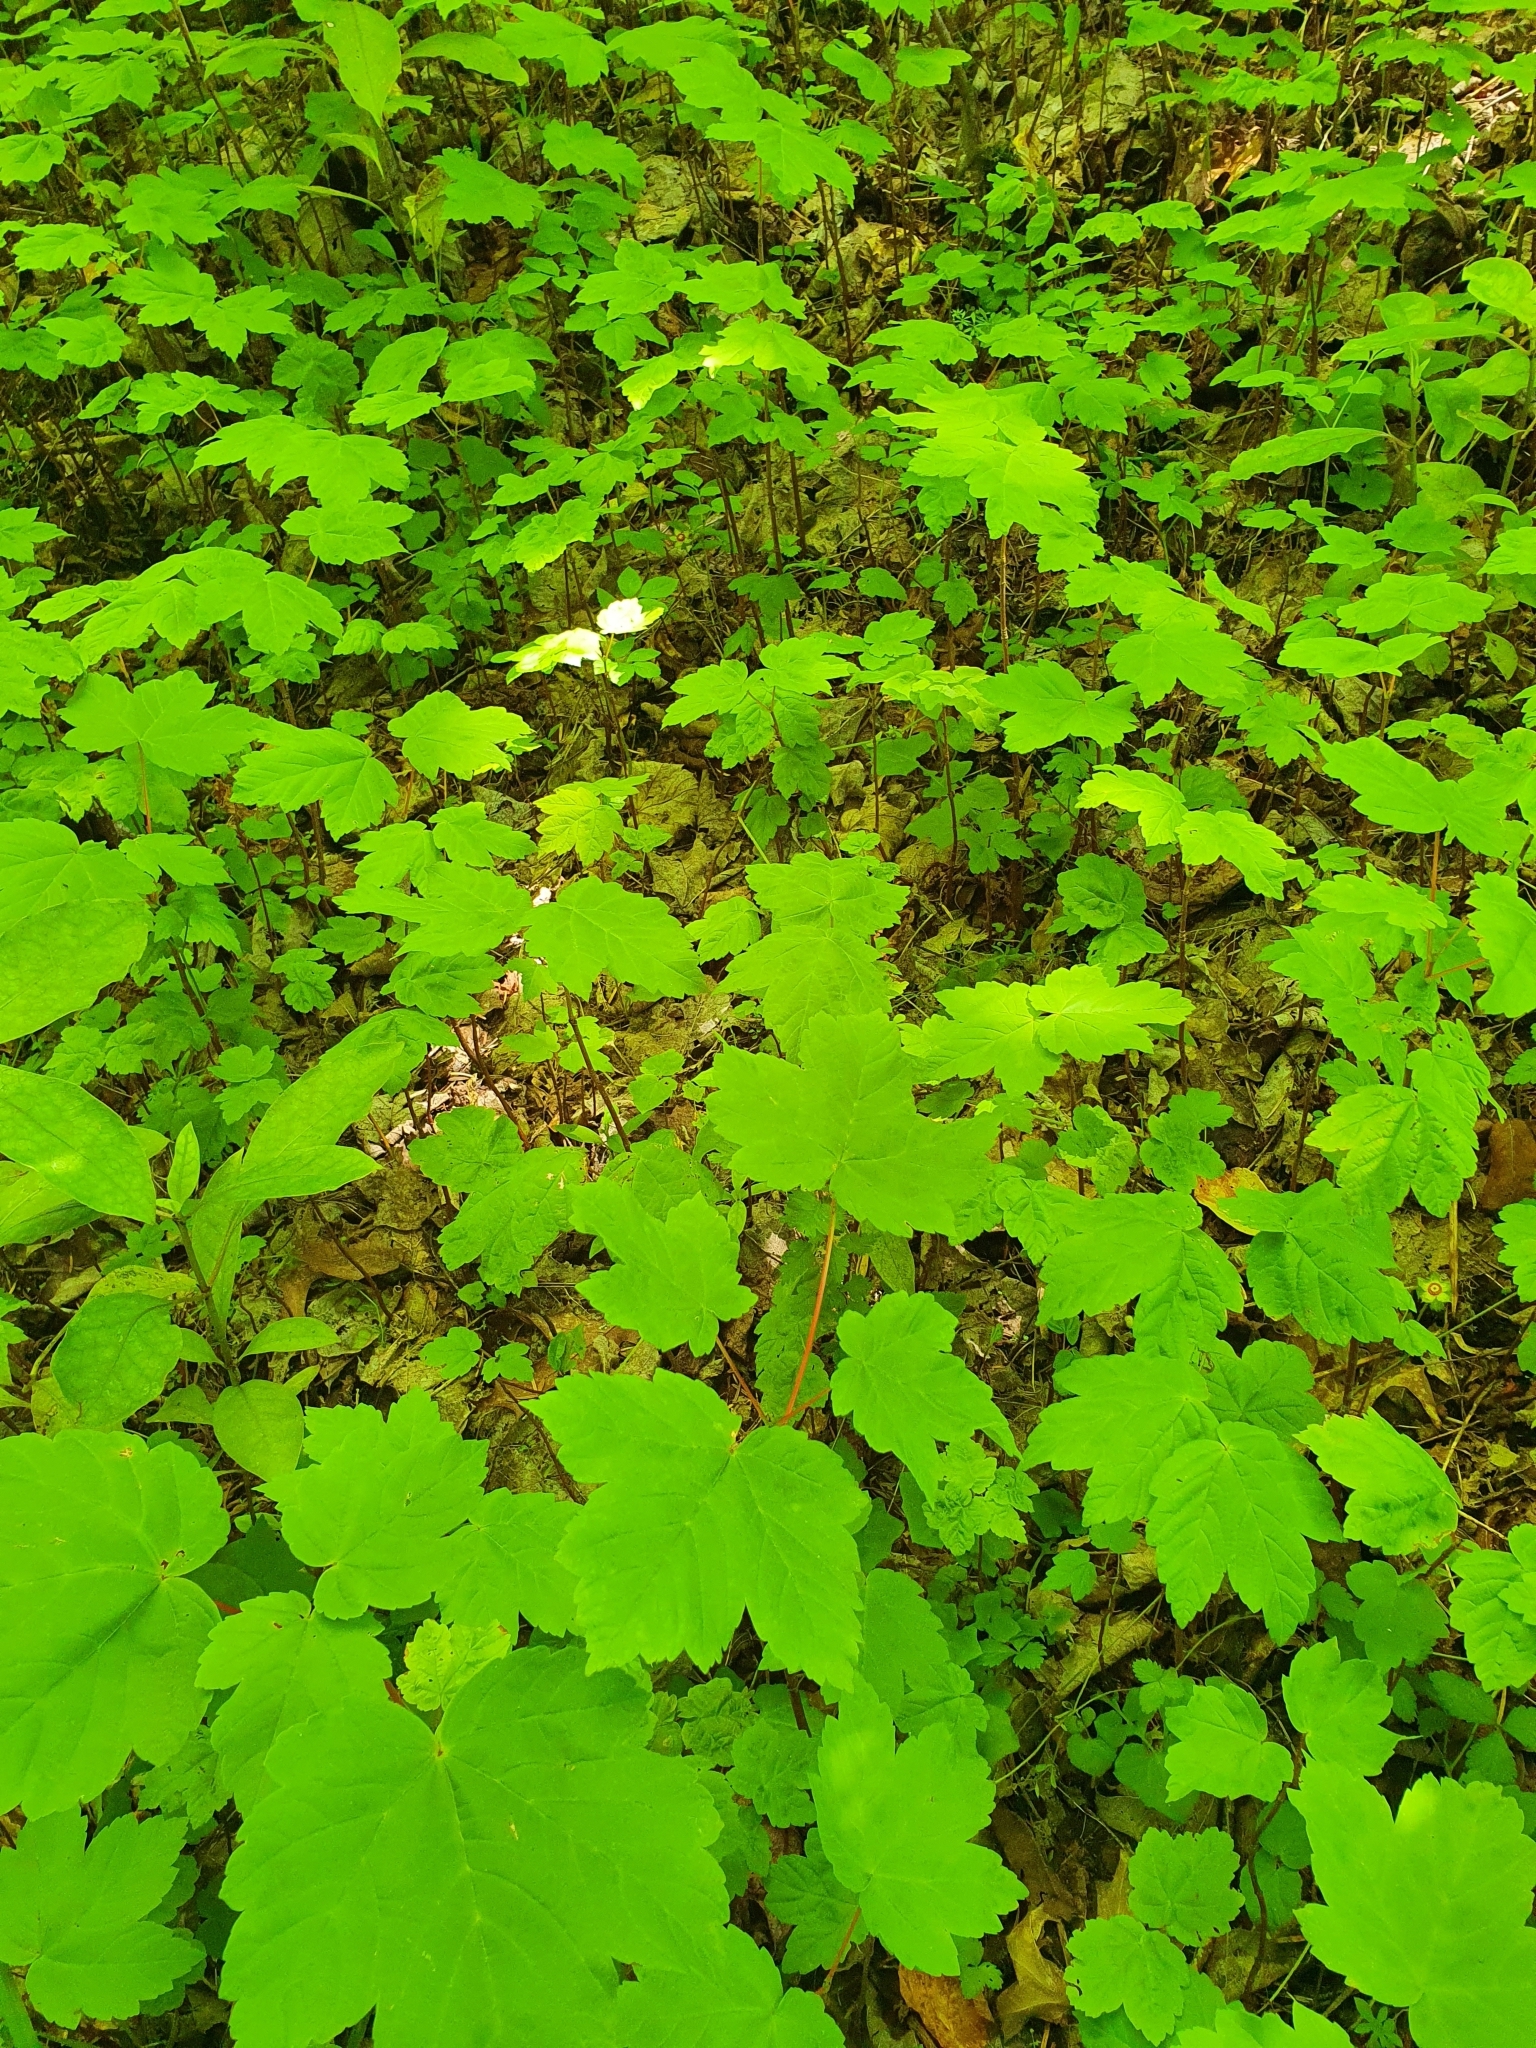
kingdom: Plantae
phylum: Tracheophyta
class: Magnoliopsida
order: Sapindales
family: Sapindaceae
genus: Acer
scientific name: Acer pseudoplatanus
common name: Sycamore
